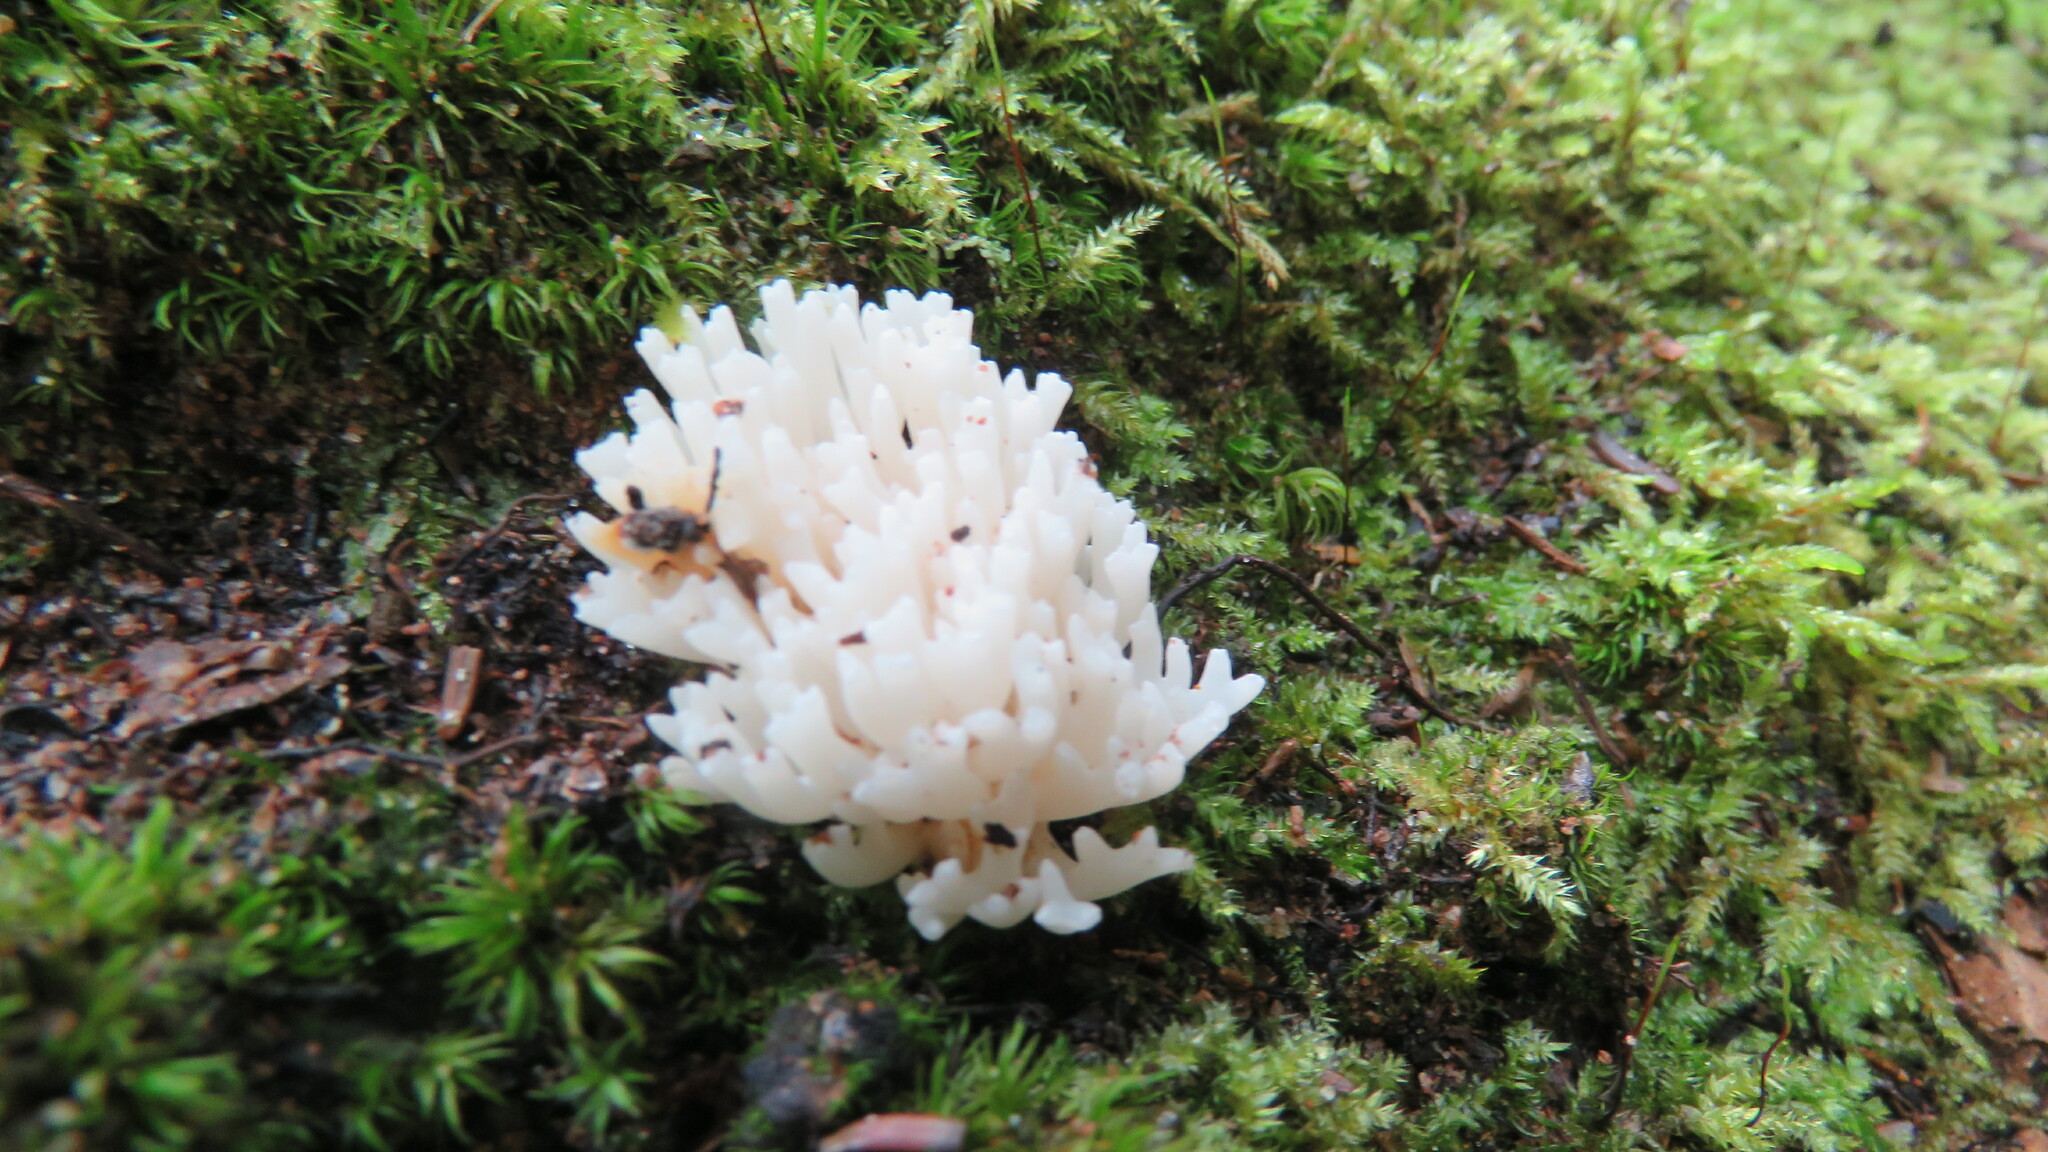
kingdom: Fungi
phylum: Basidiomycota
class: Agaricomycetes
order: Agaricales
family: Clavariaceae
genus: Ramariopsis
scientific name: Ramariopsis kunzei
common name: Ivory coral
